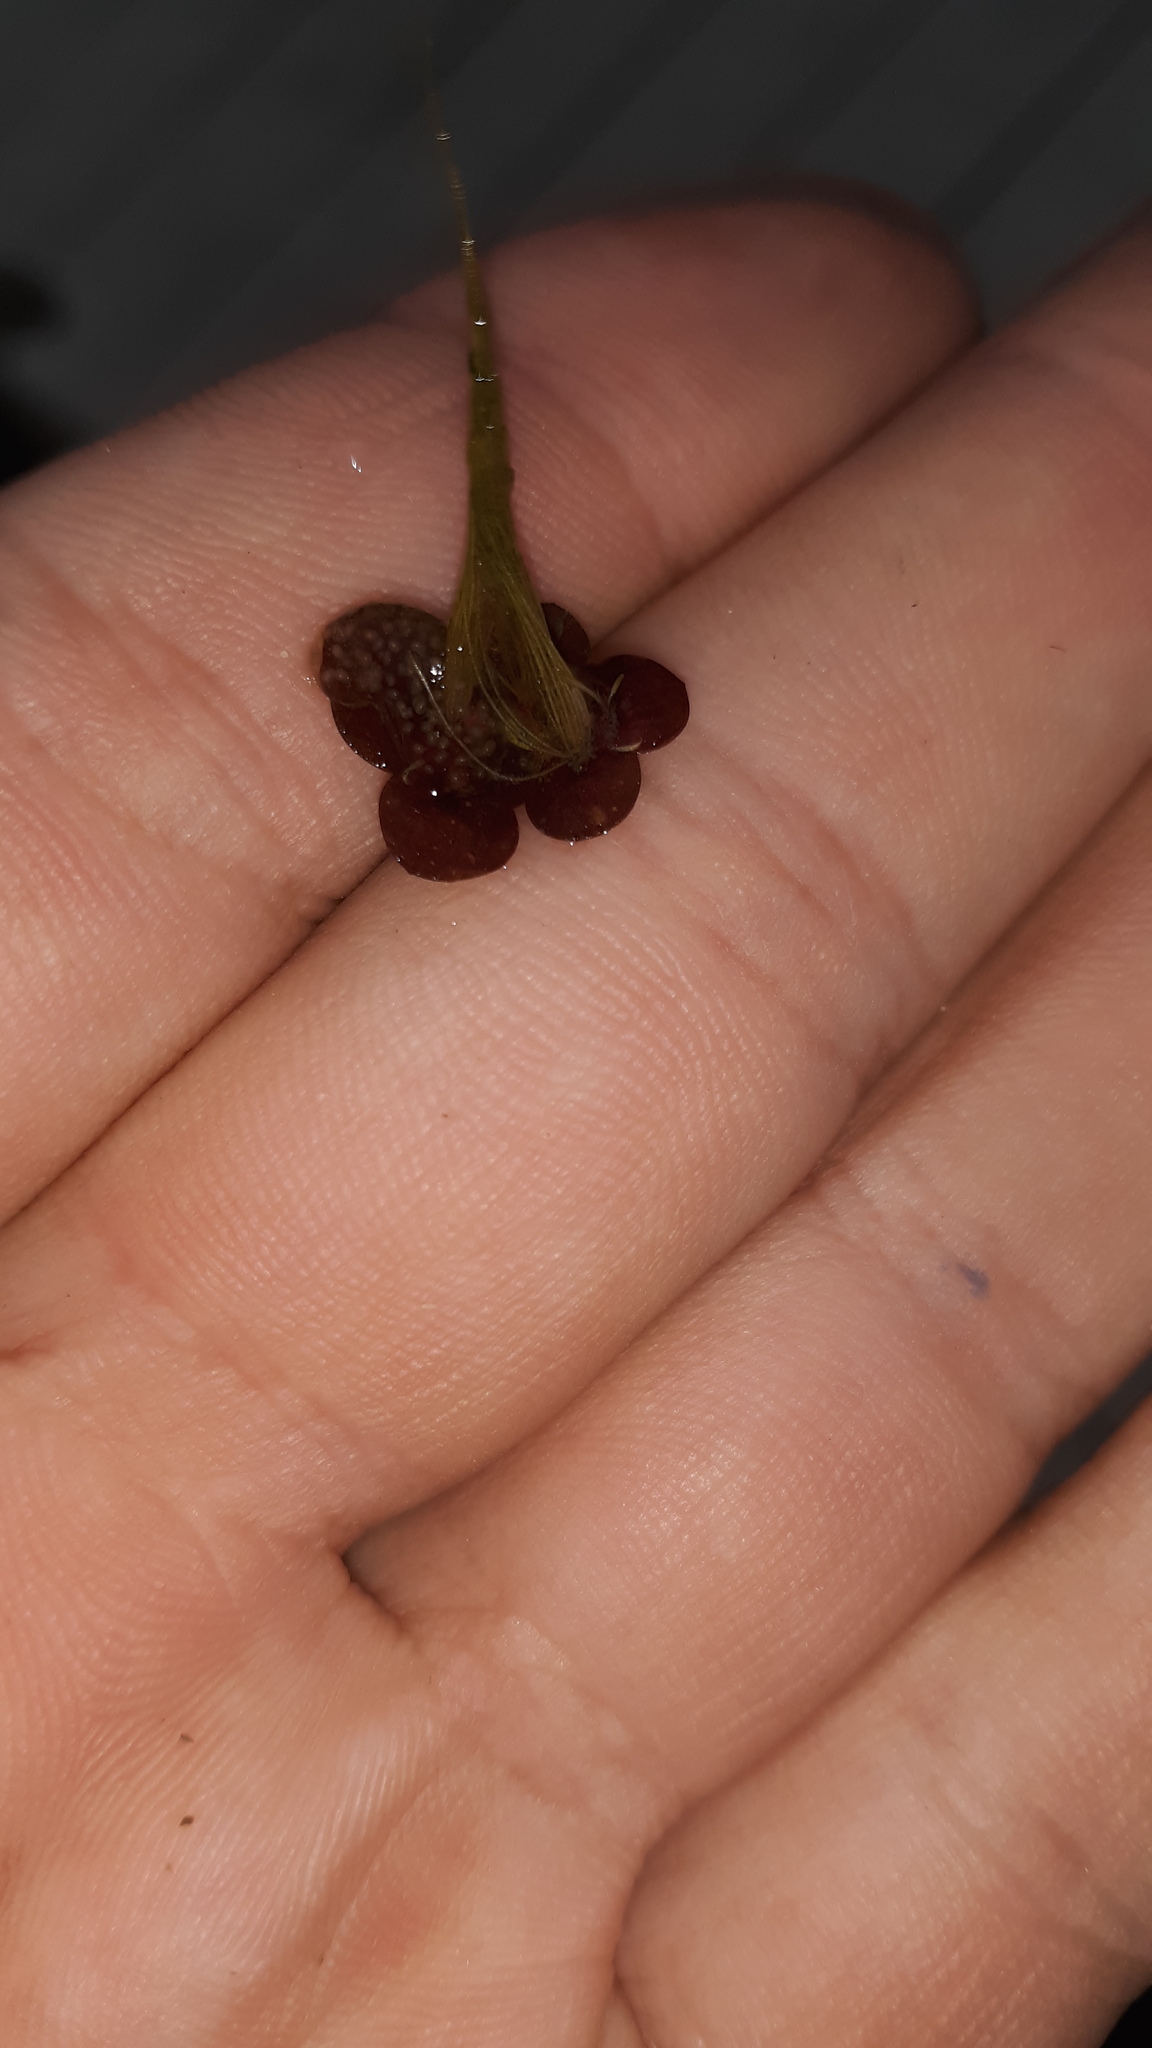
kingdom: Plantae
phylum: Tracheophyta
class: Liliopsida
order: Alismatales
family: Araceae
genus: Spirodela
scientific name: Spirodela polyrhiza
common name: Great duckweed
